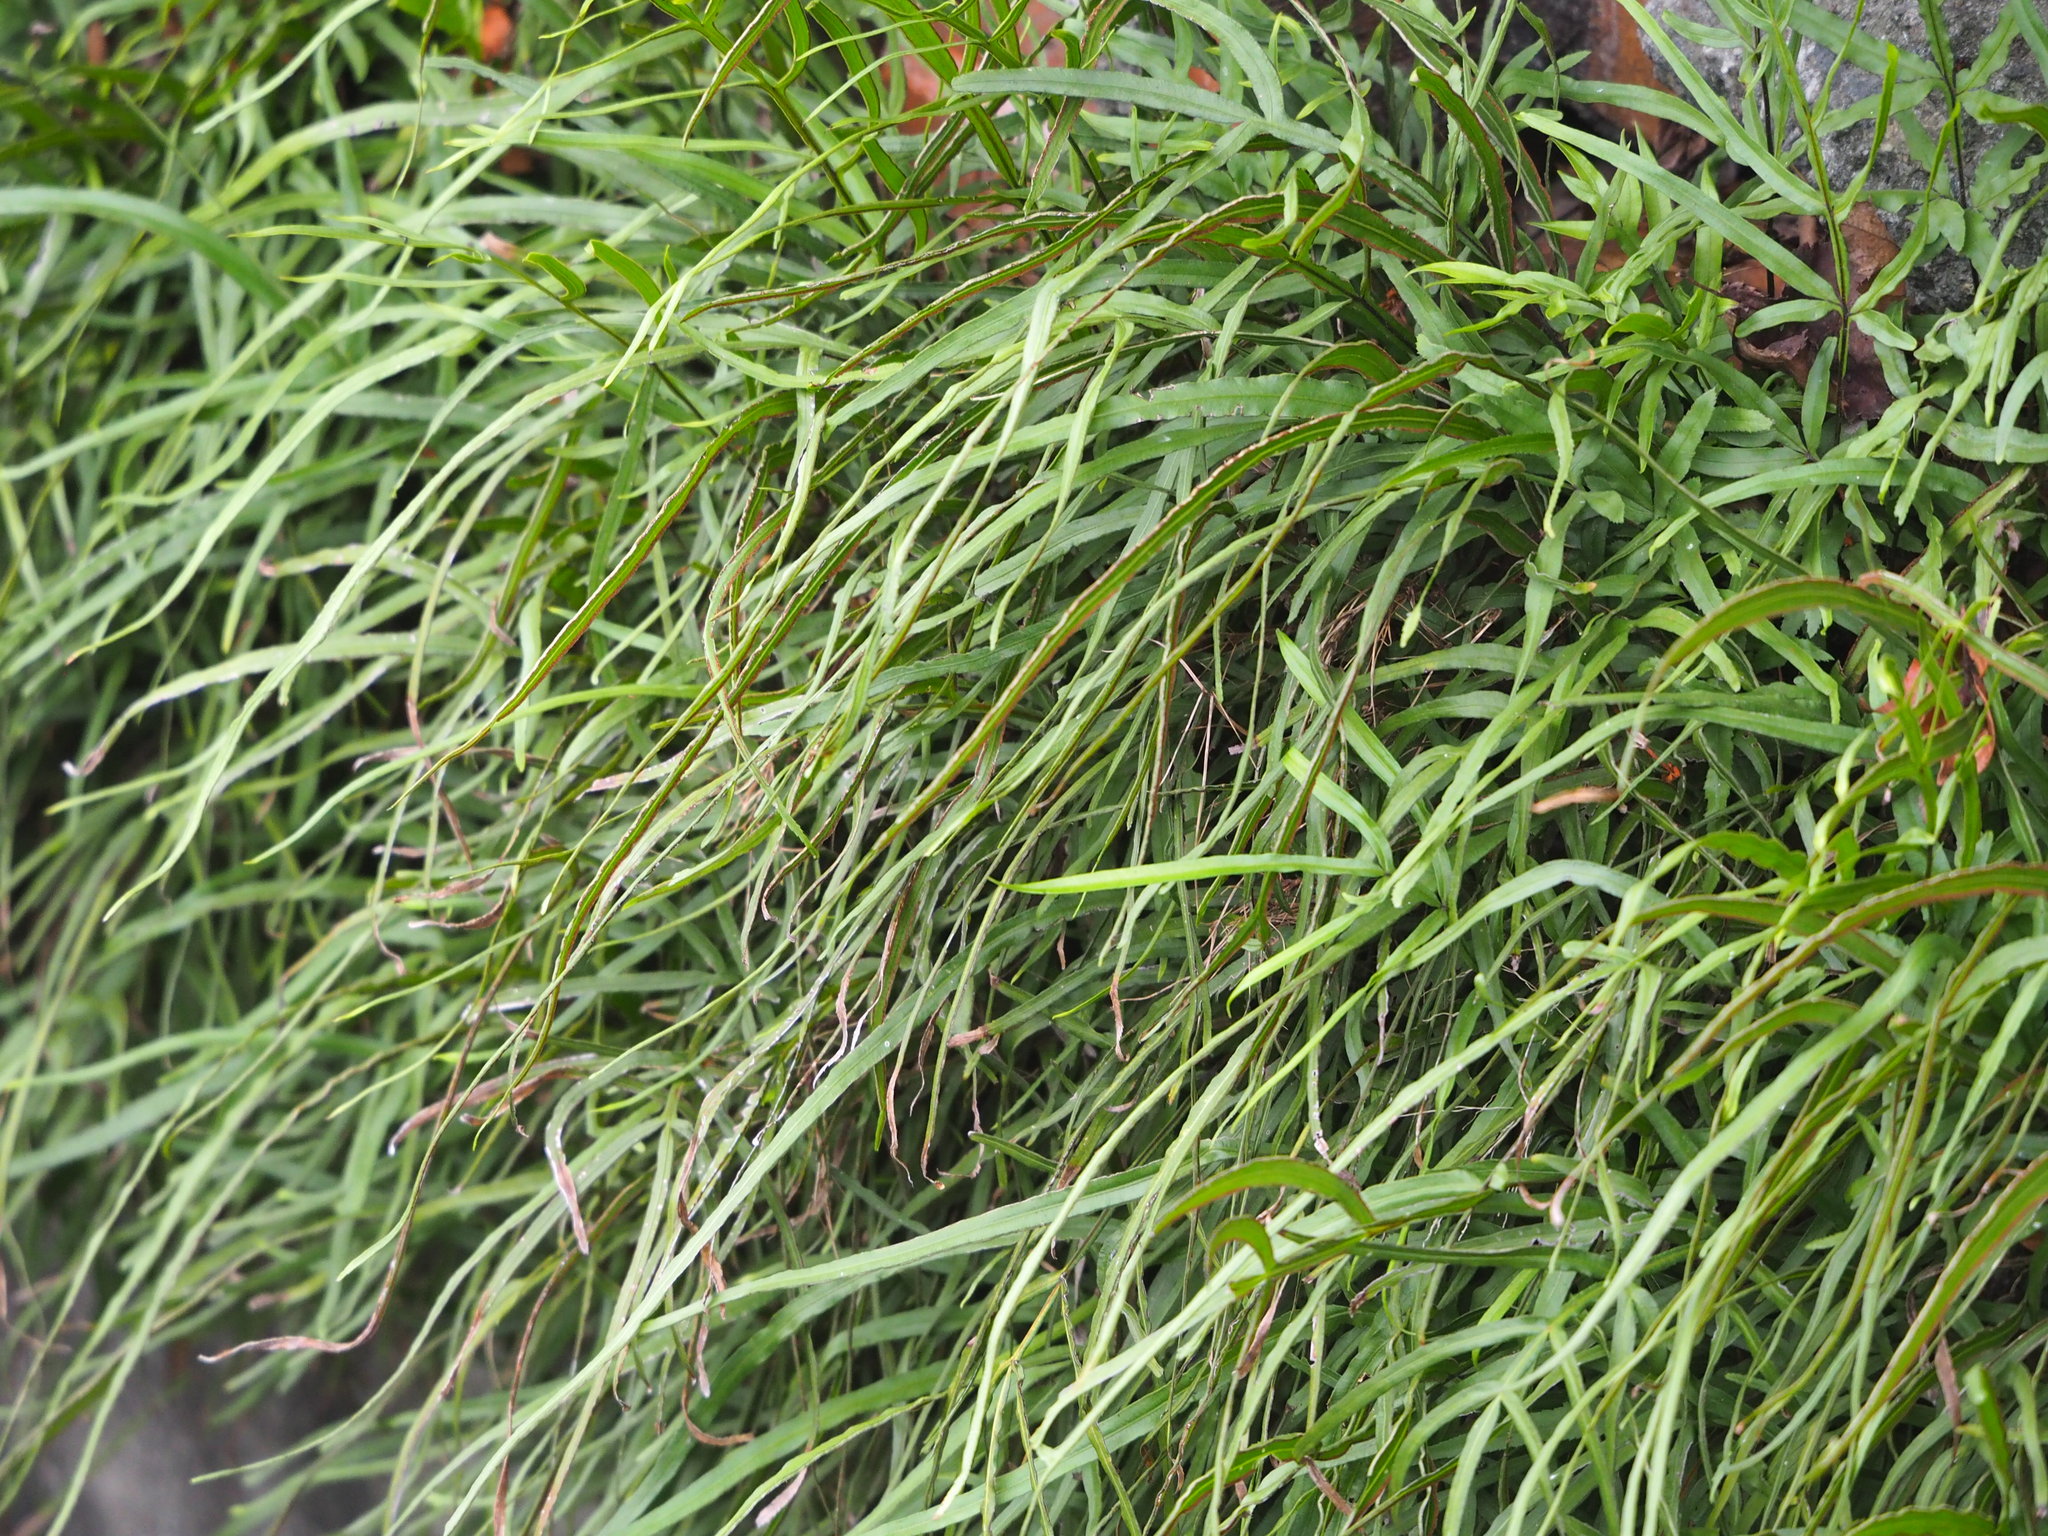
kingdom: Plantae
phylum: Tracheophyta
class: Polypodiopsida
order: Polypodiales
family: Pteridaceae
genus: Pteris
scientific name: Pteris multifida
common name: Spider brake
